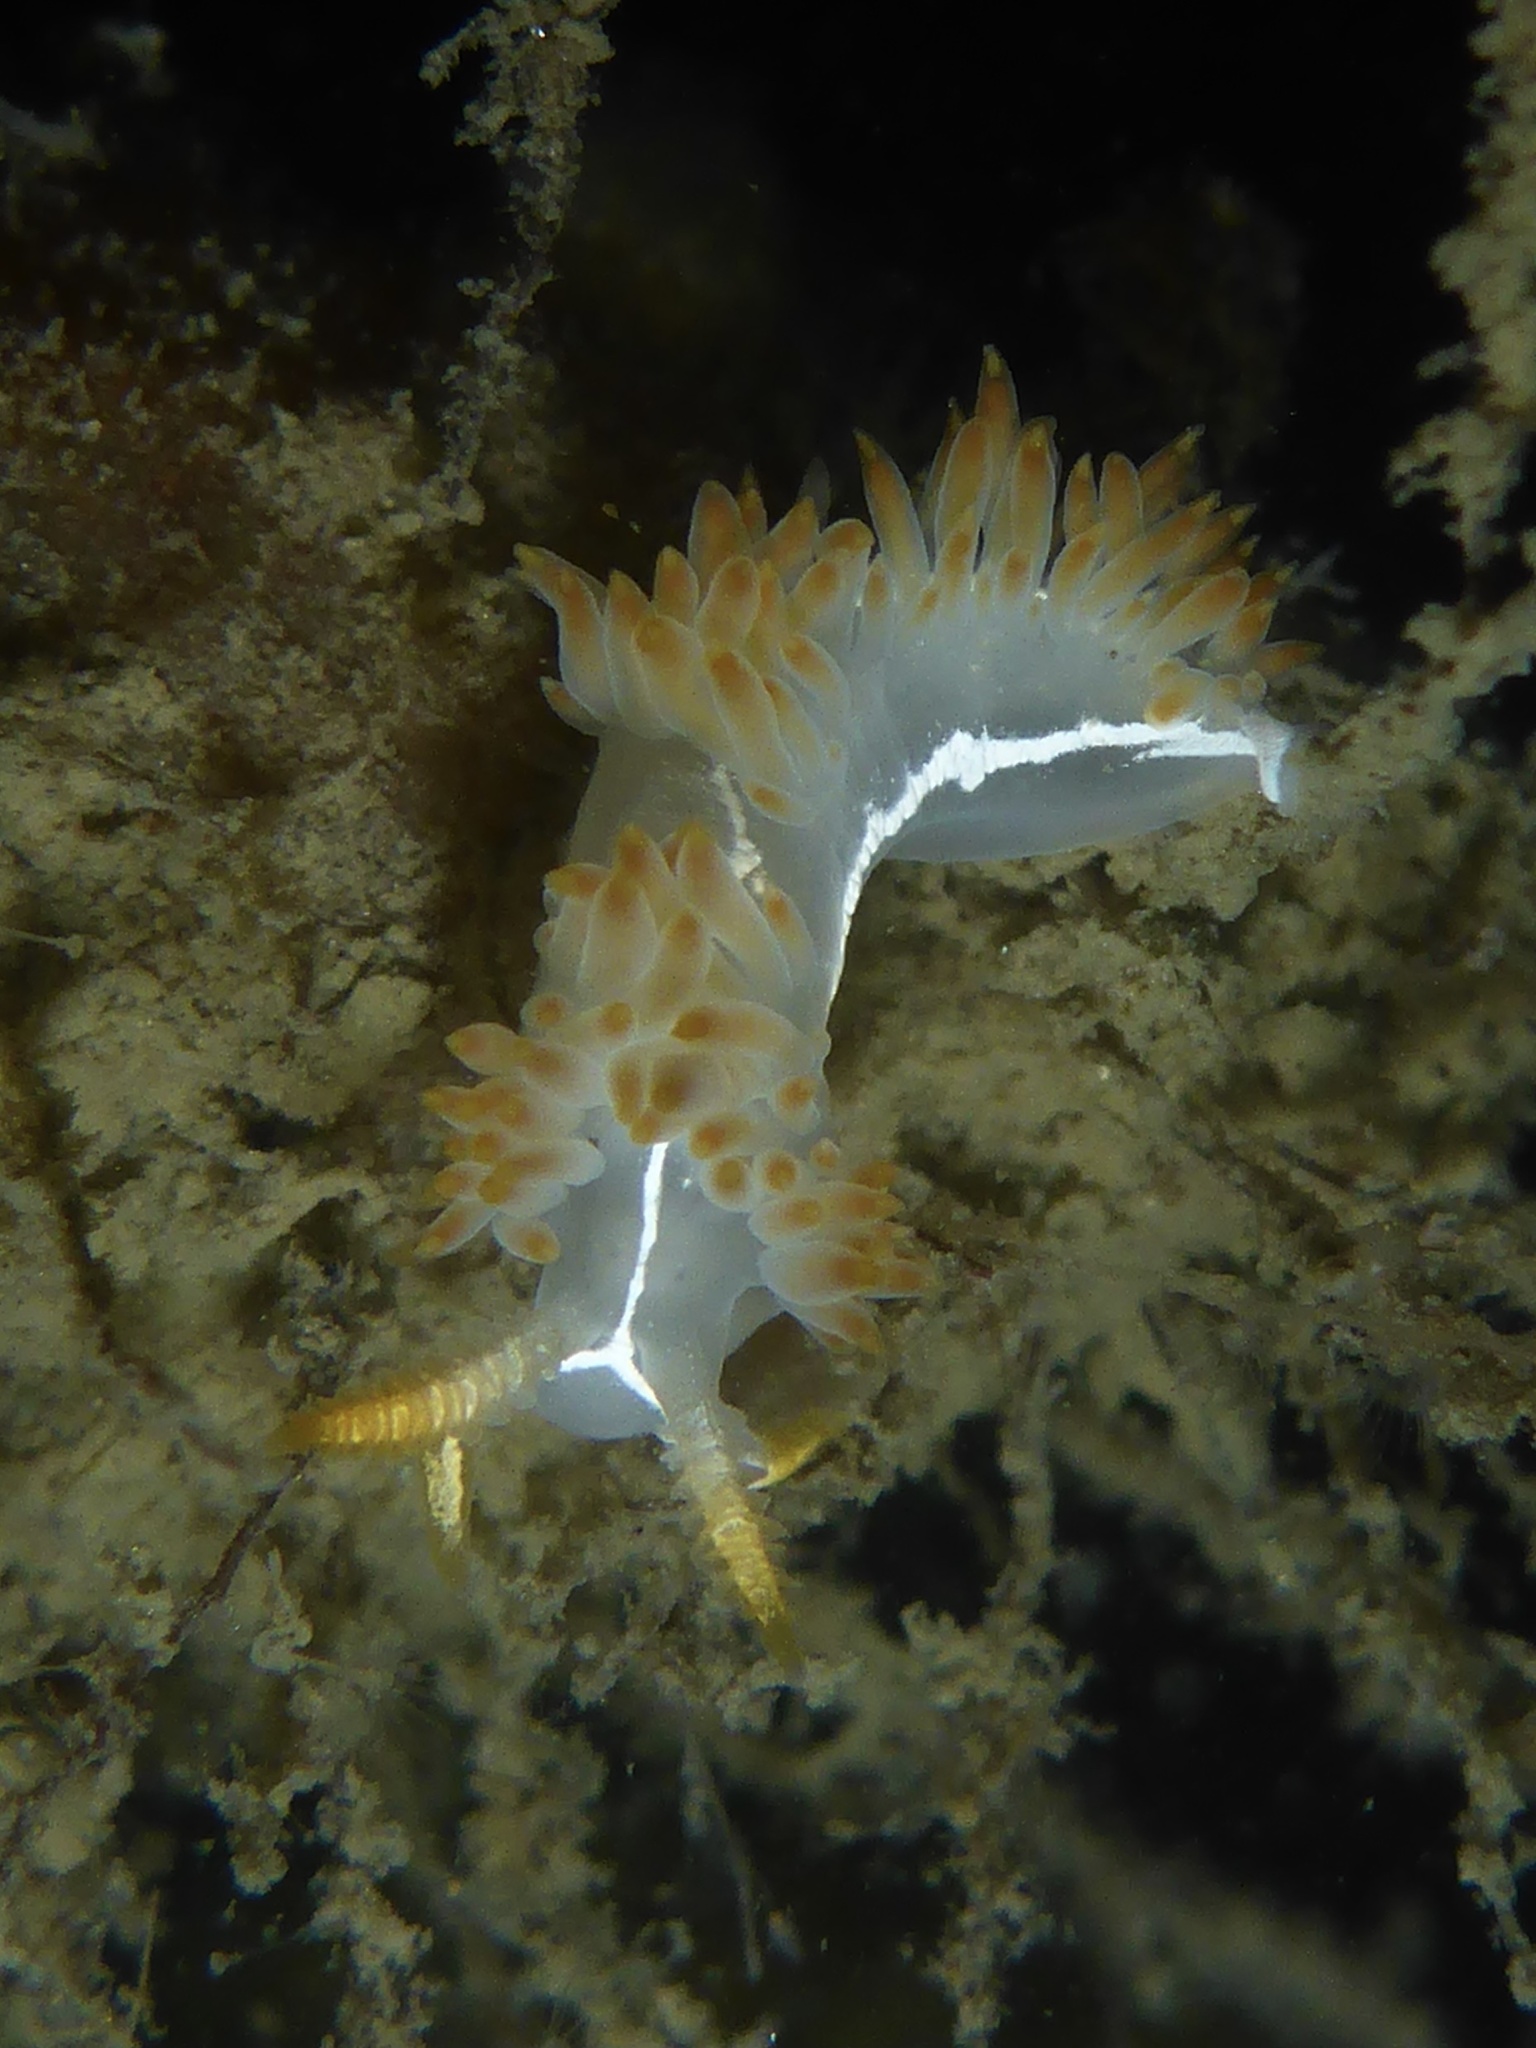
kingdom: Animalia
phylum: Mollusca
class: Gastropoda
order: Nudibranchia
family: Coryphellidae
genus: Coryphella
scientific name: Coryphella trilineata
